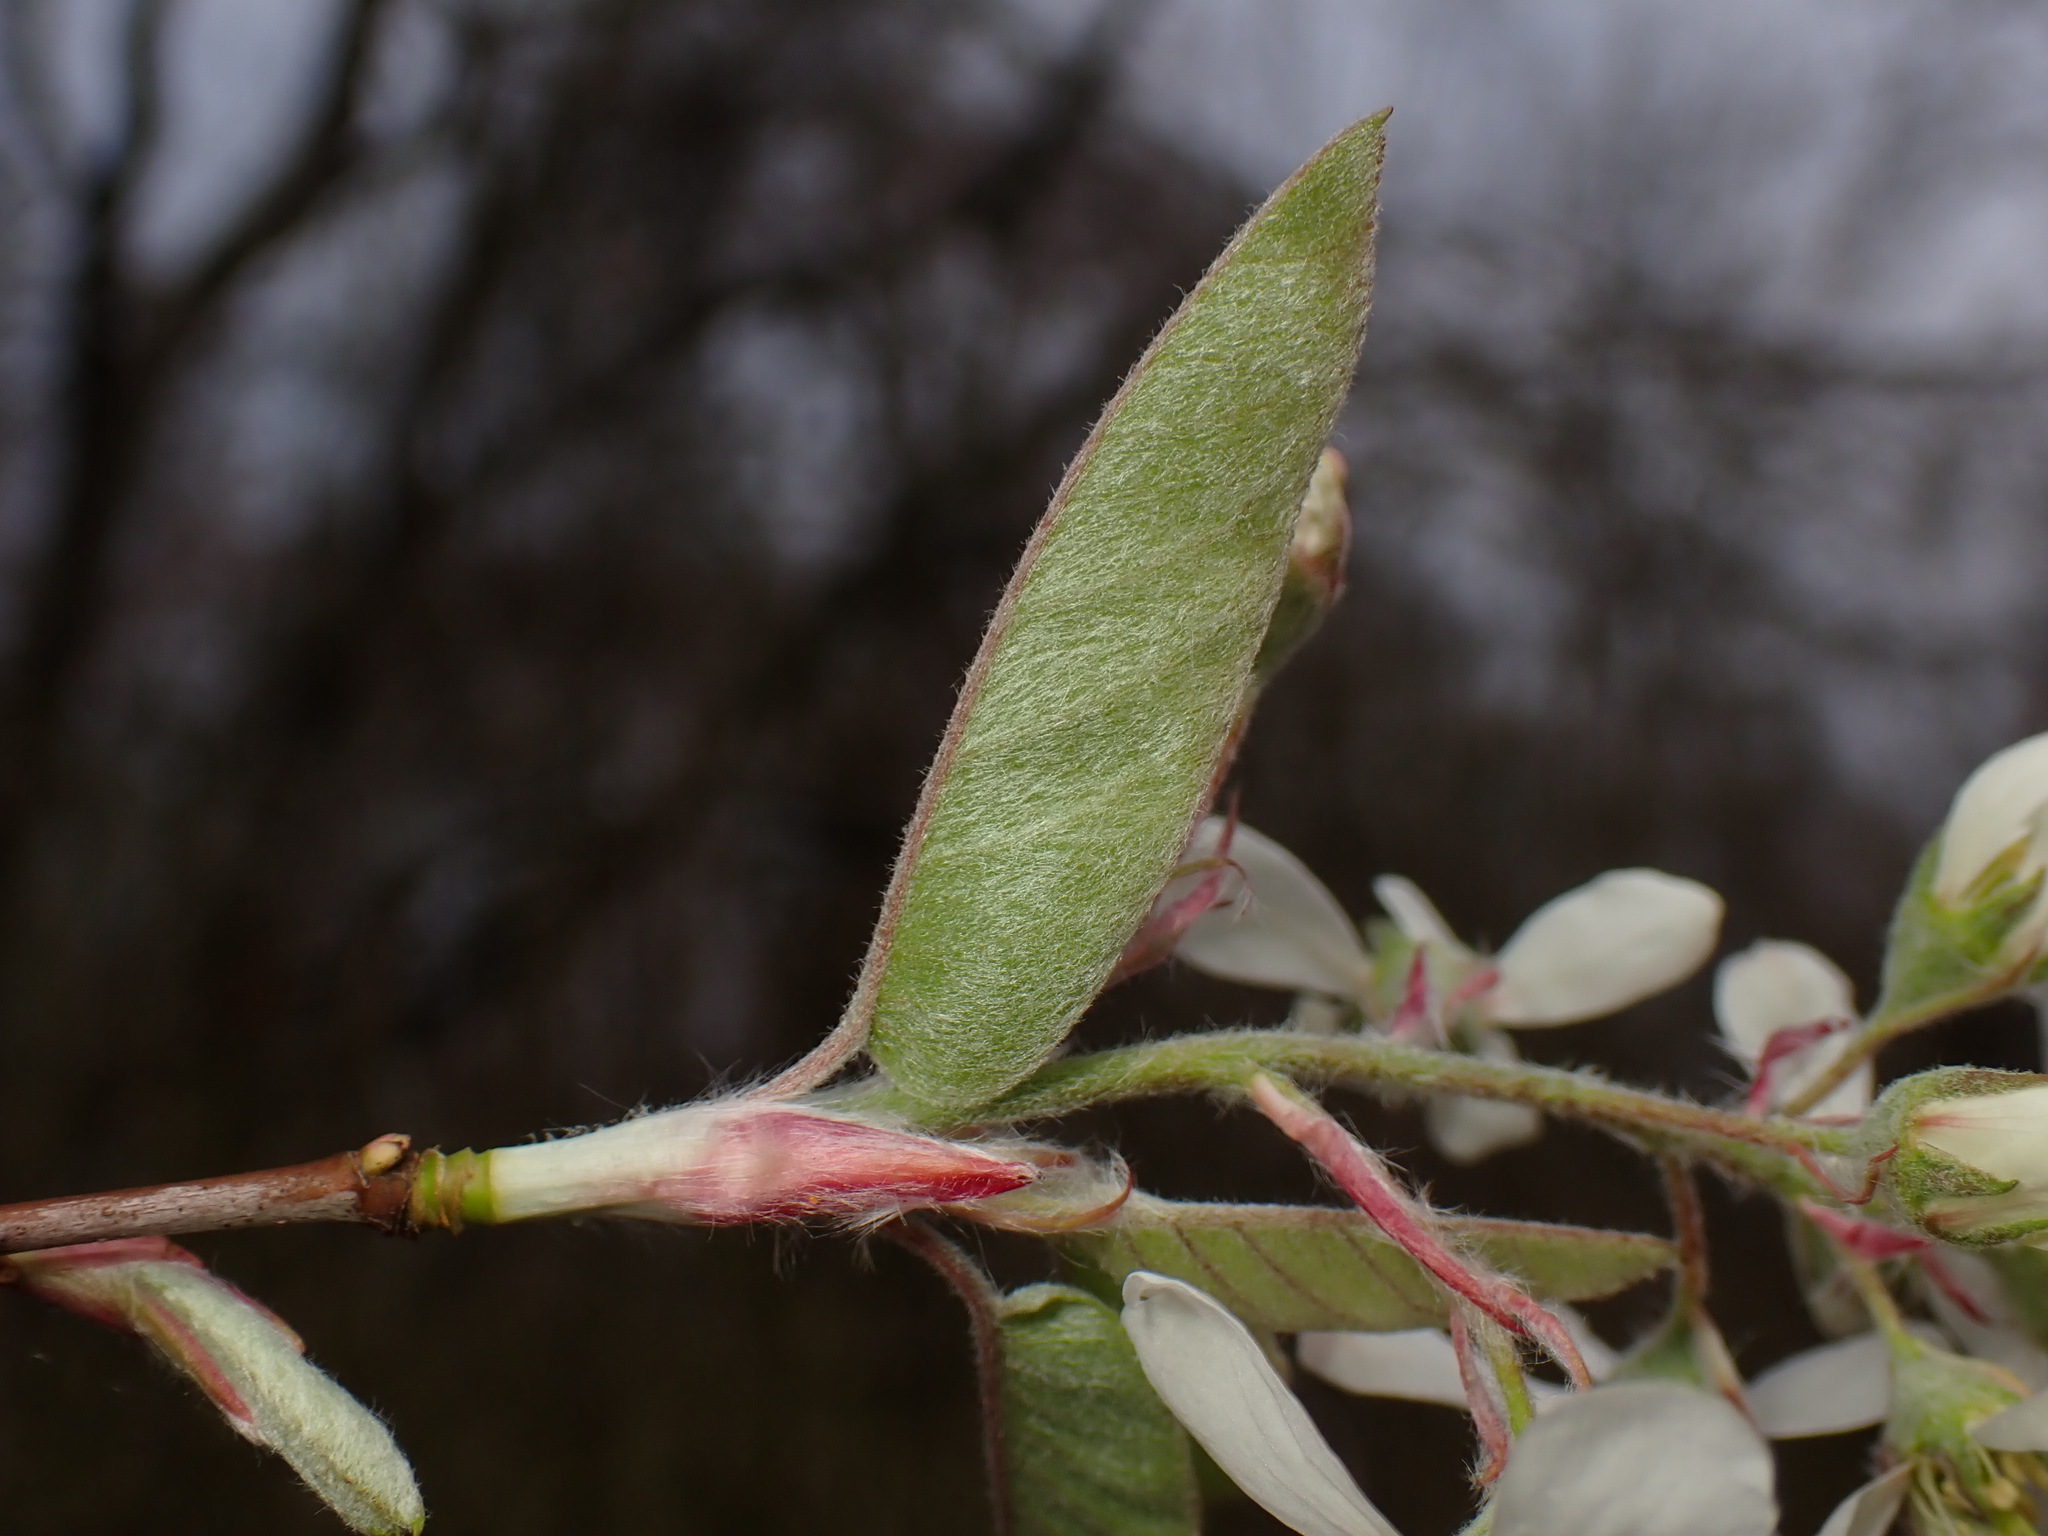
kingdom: Plantae
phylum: Tracheophyta
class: Magnoliopsida
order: Rosales
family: Rosaceae
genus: Amelanchier
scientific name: Amelanchier canadensis
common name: Thicket serviceberry
